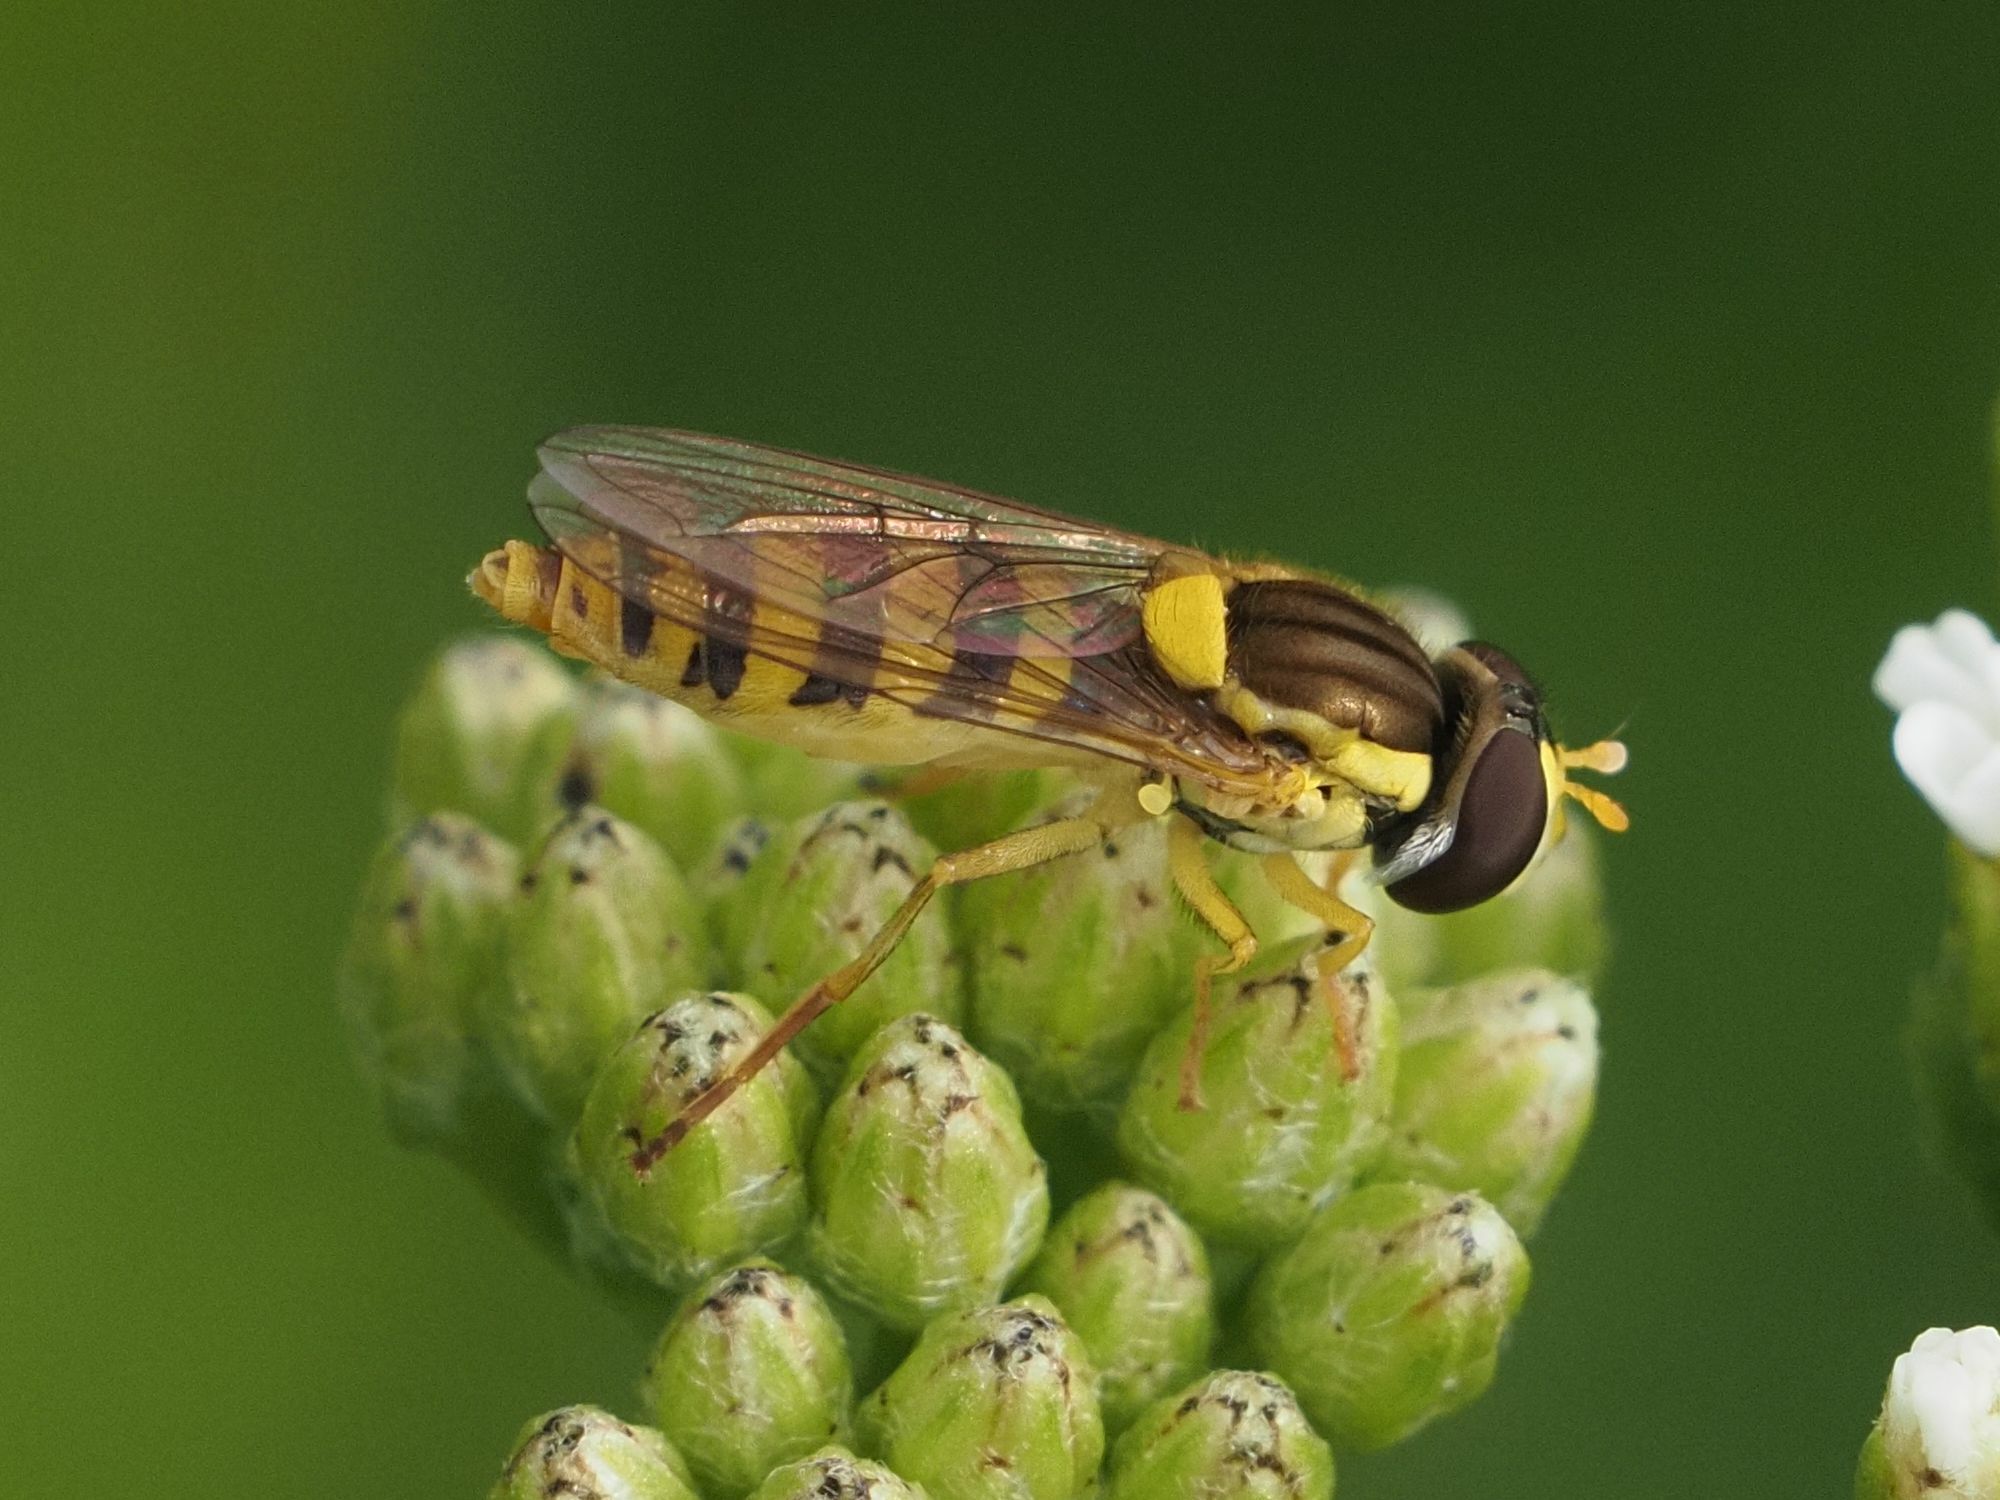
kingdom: Animalia
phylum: Arthropoda
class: Insecta
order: Diptera
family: Syrphidae
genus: Sphaerophoria
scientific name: Sphaerophoria
